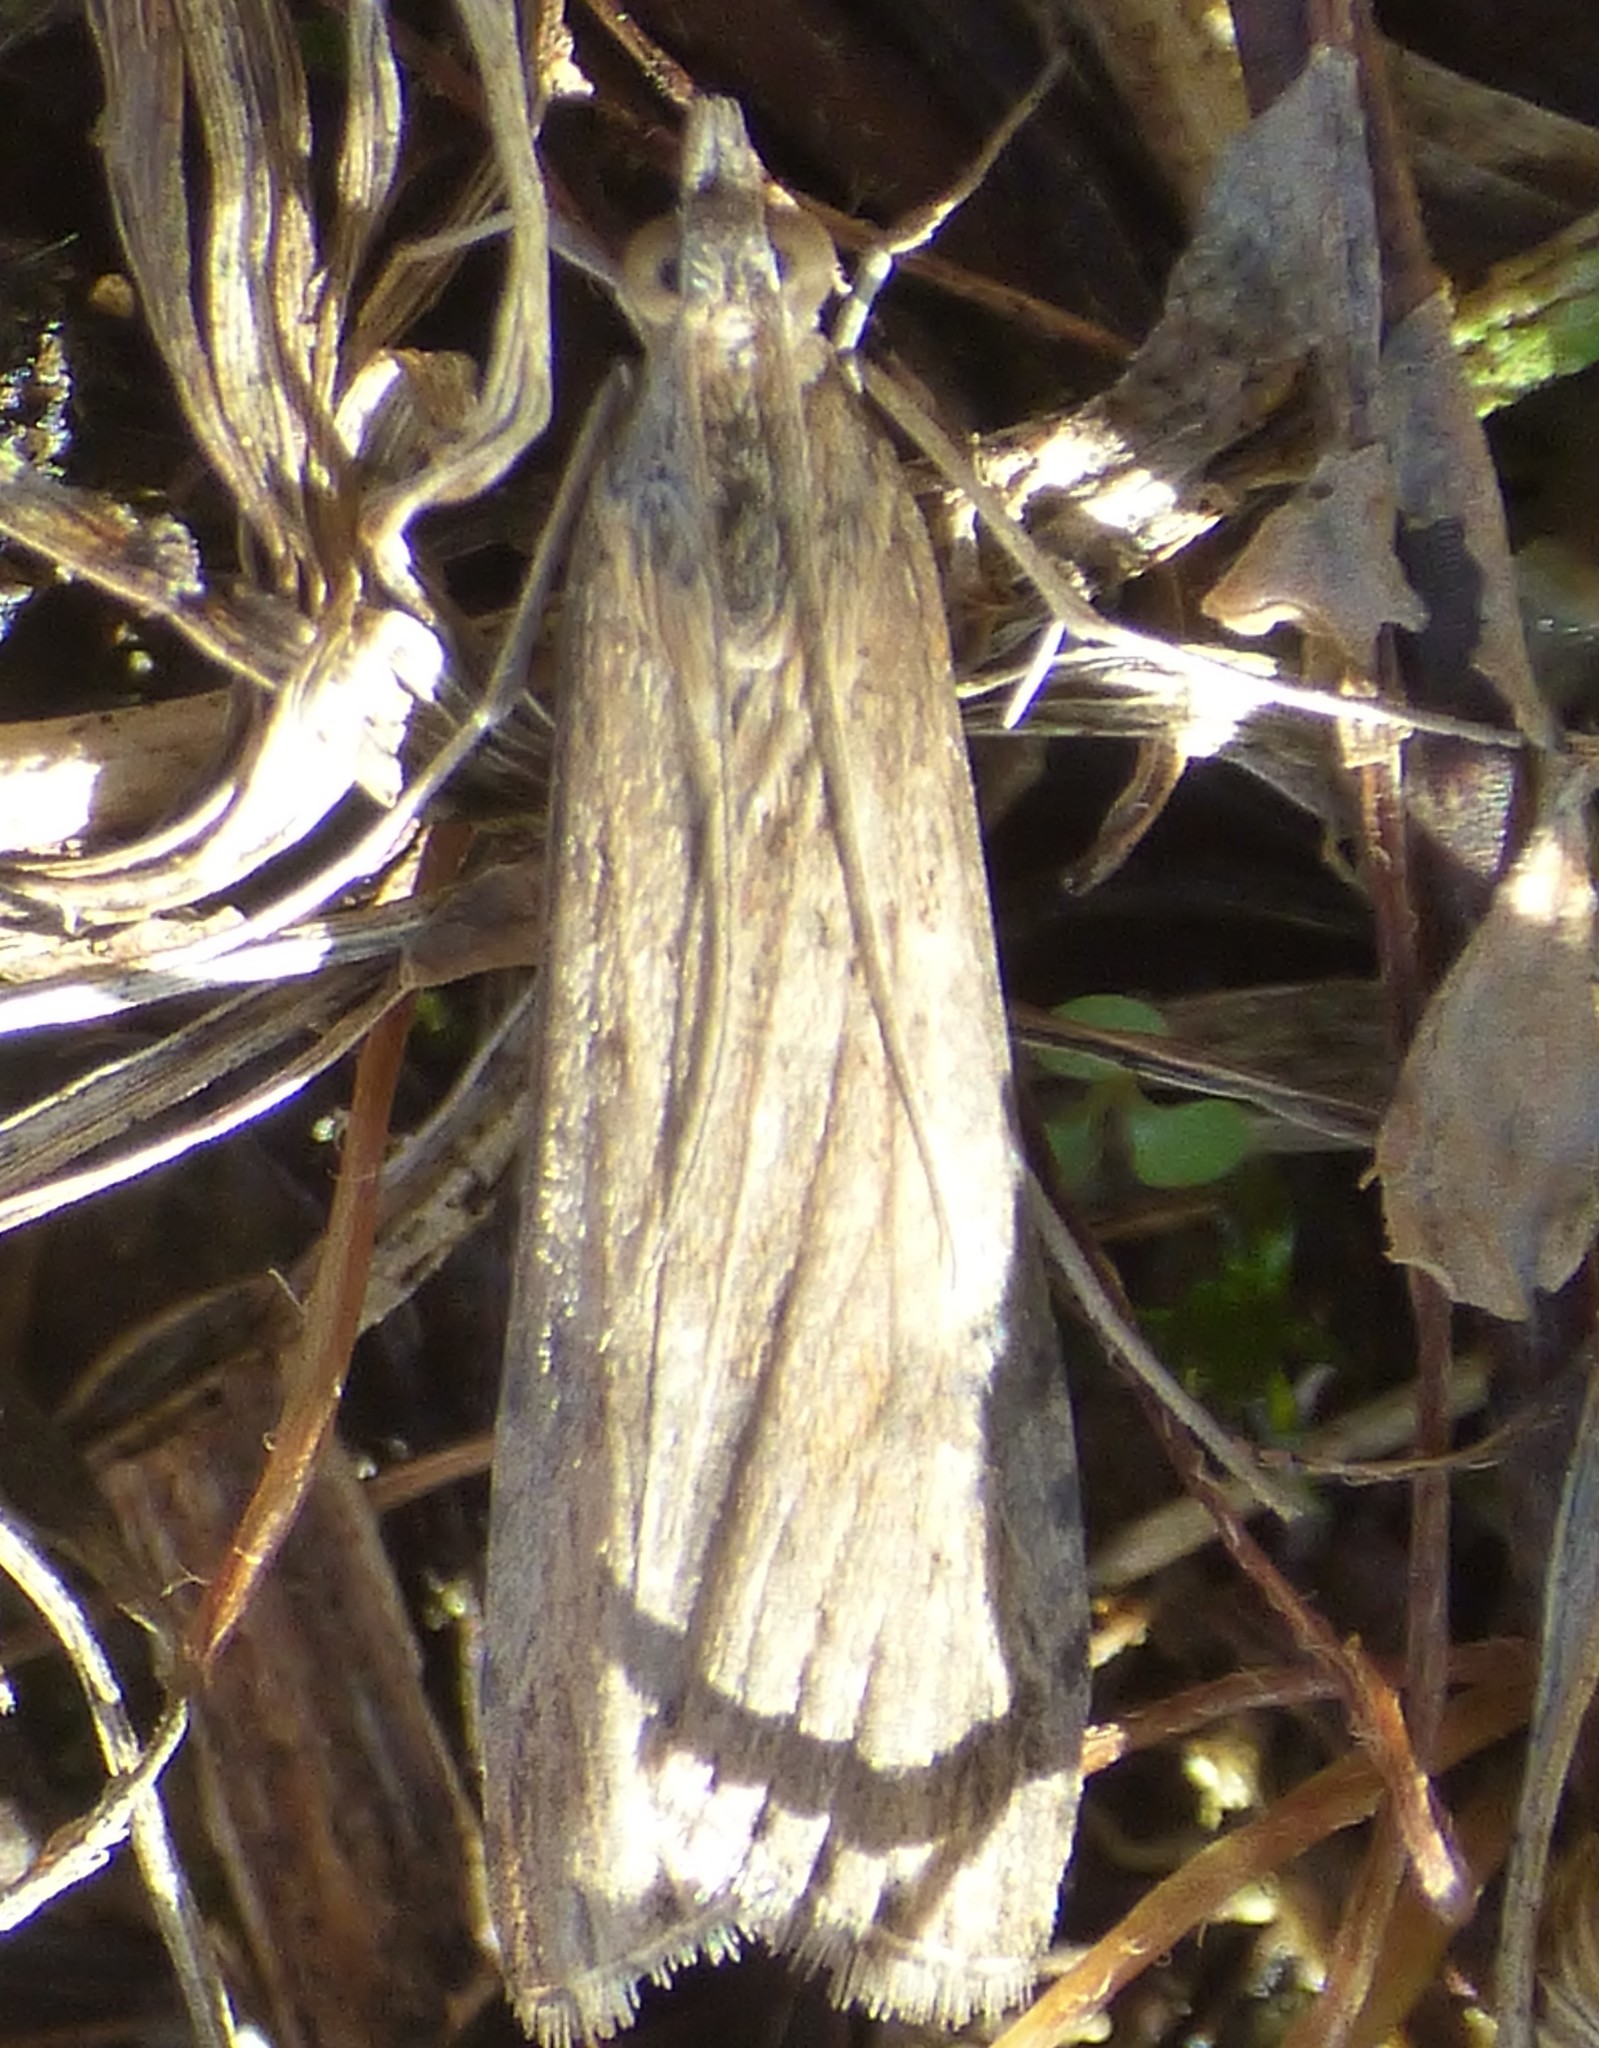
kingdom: Animalia
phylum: Arthropoda
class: Insecta
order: Lepidoptera
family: Crambidae
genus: Nomophila
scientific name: Nomophila nearctica
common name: American rush veneer
